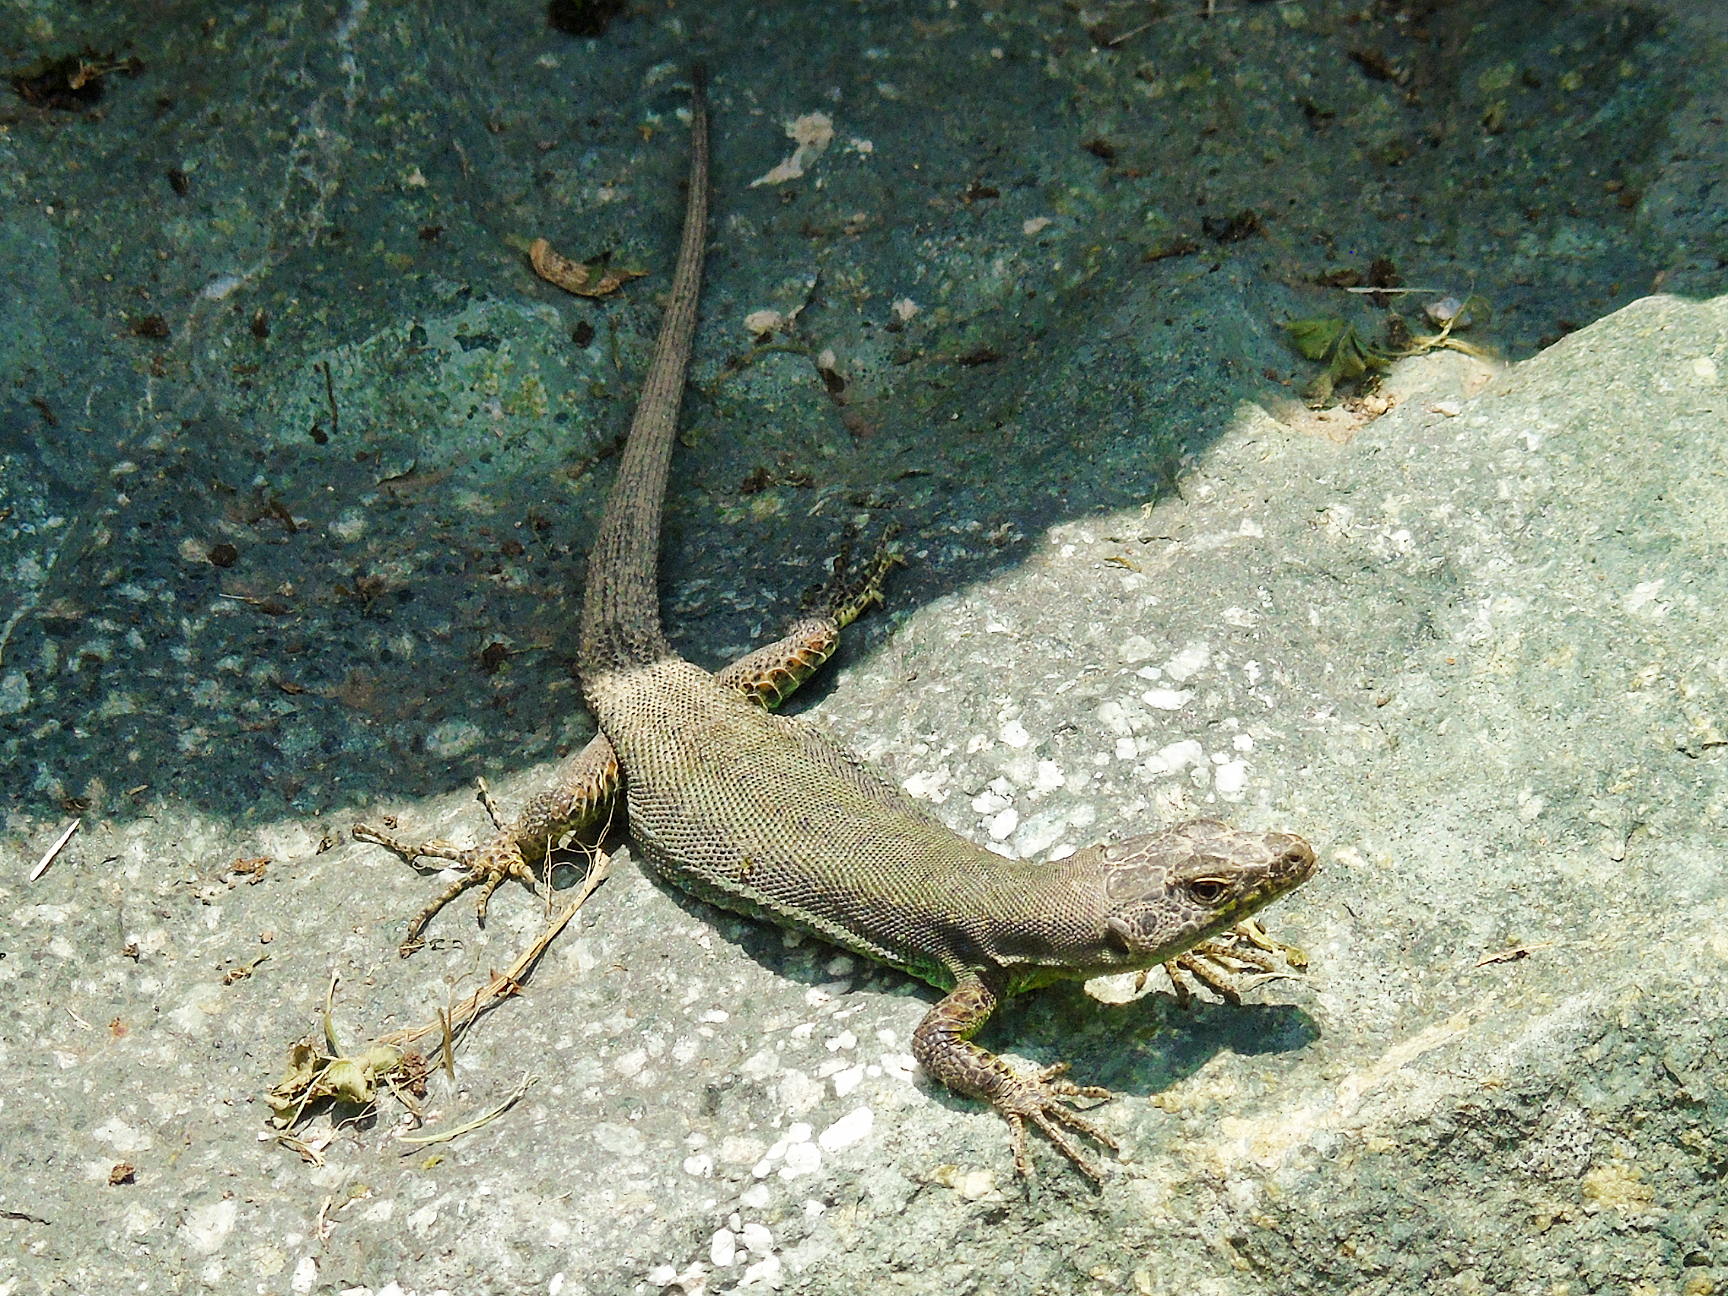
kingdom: Animalia
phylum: Chordata
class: Squamata
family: Lacertidae
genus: Darevskia
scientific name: Darevskia rudis
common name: Spiny-tailed lizard
